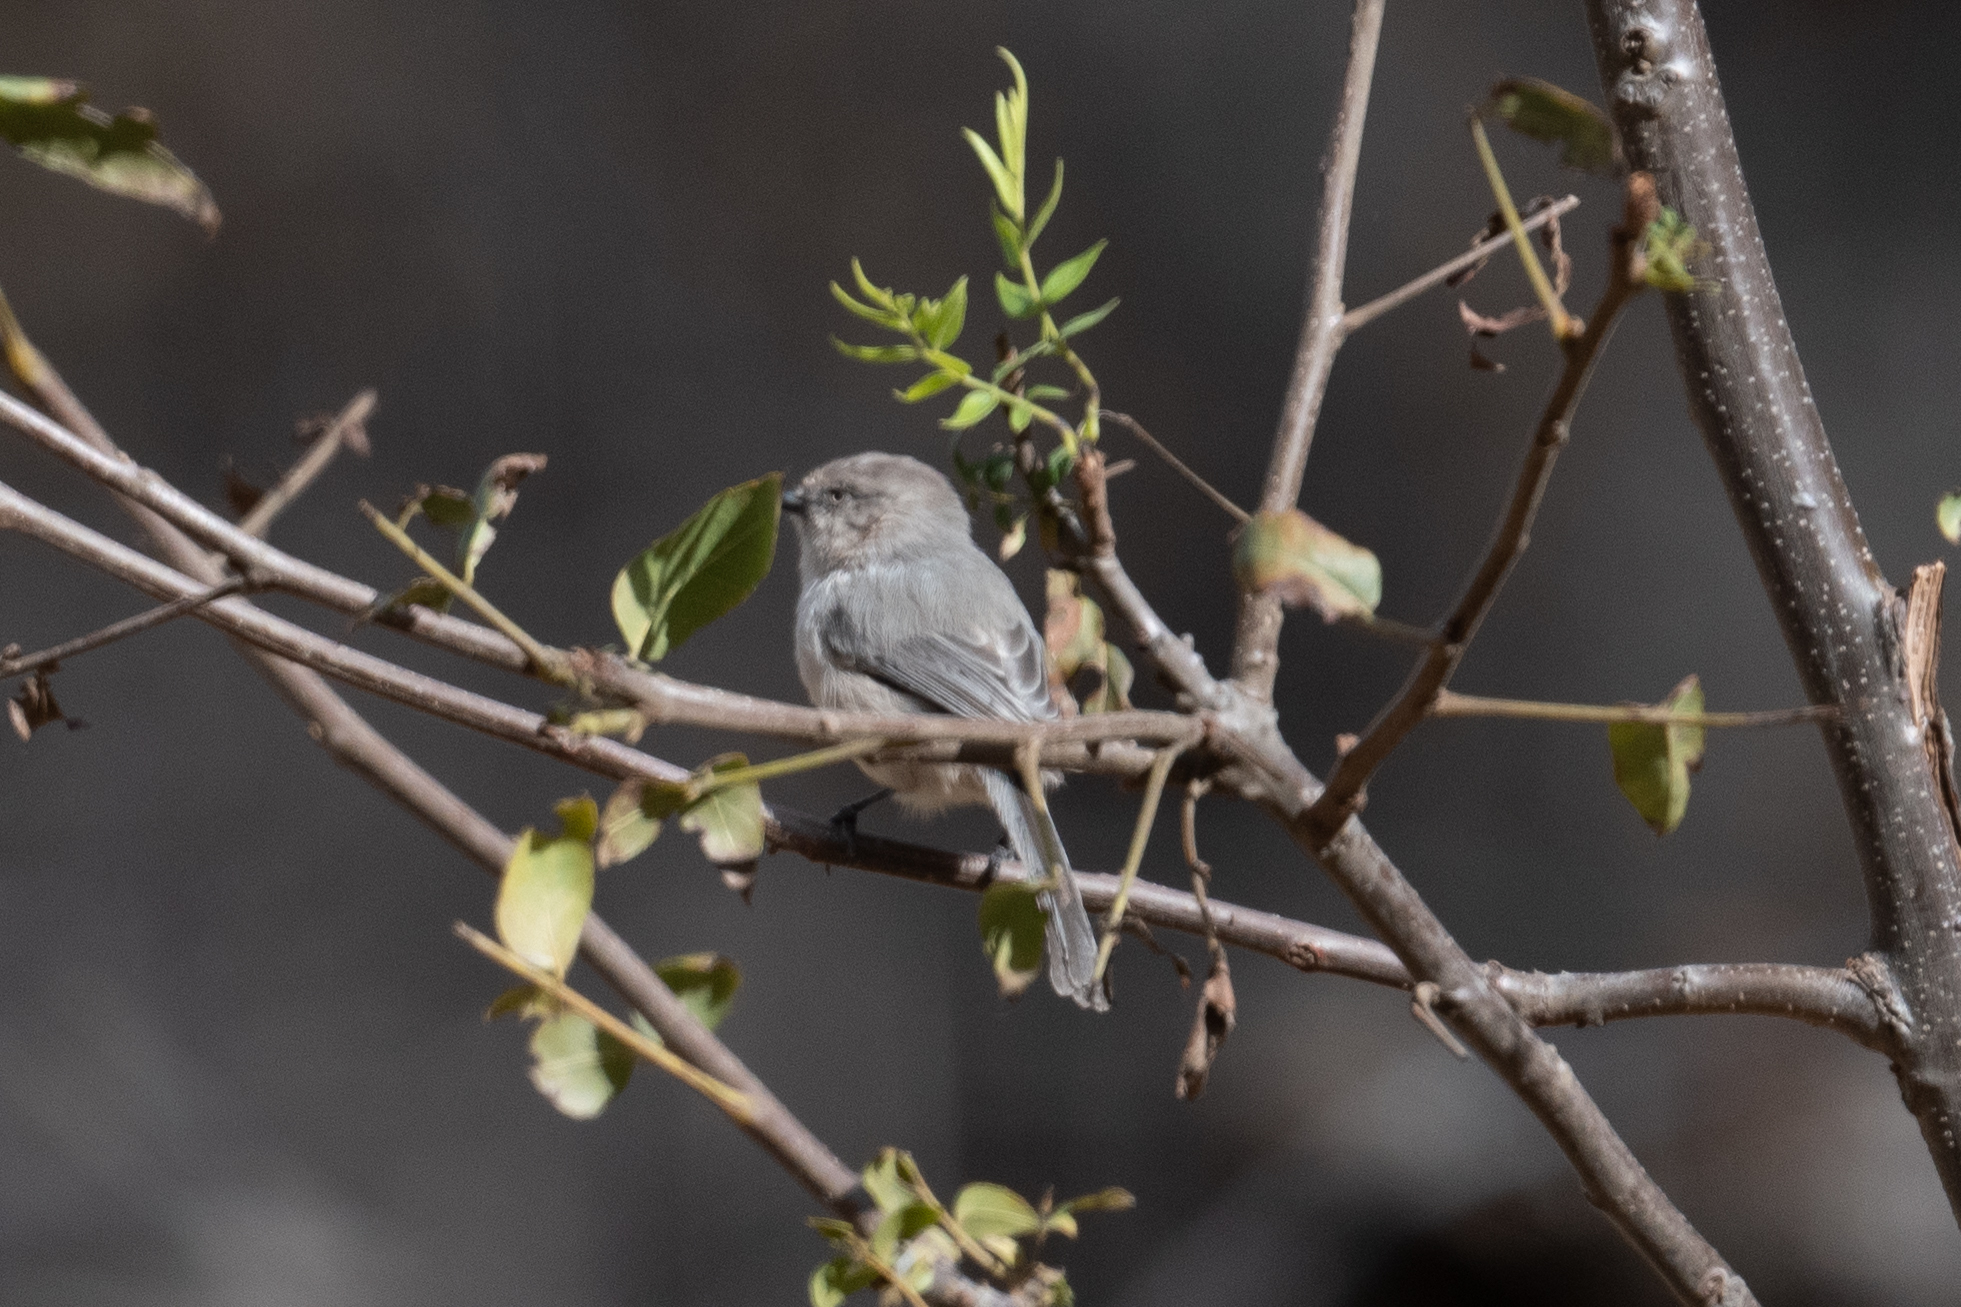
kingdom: Animalia
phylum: Chordata
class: Aves
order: Passeriformes
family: Aegithalidae
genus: Psaltriparus
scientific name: Psaltriparus minimus
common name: American bushtit
